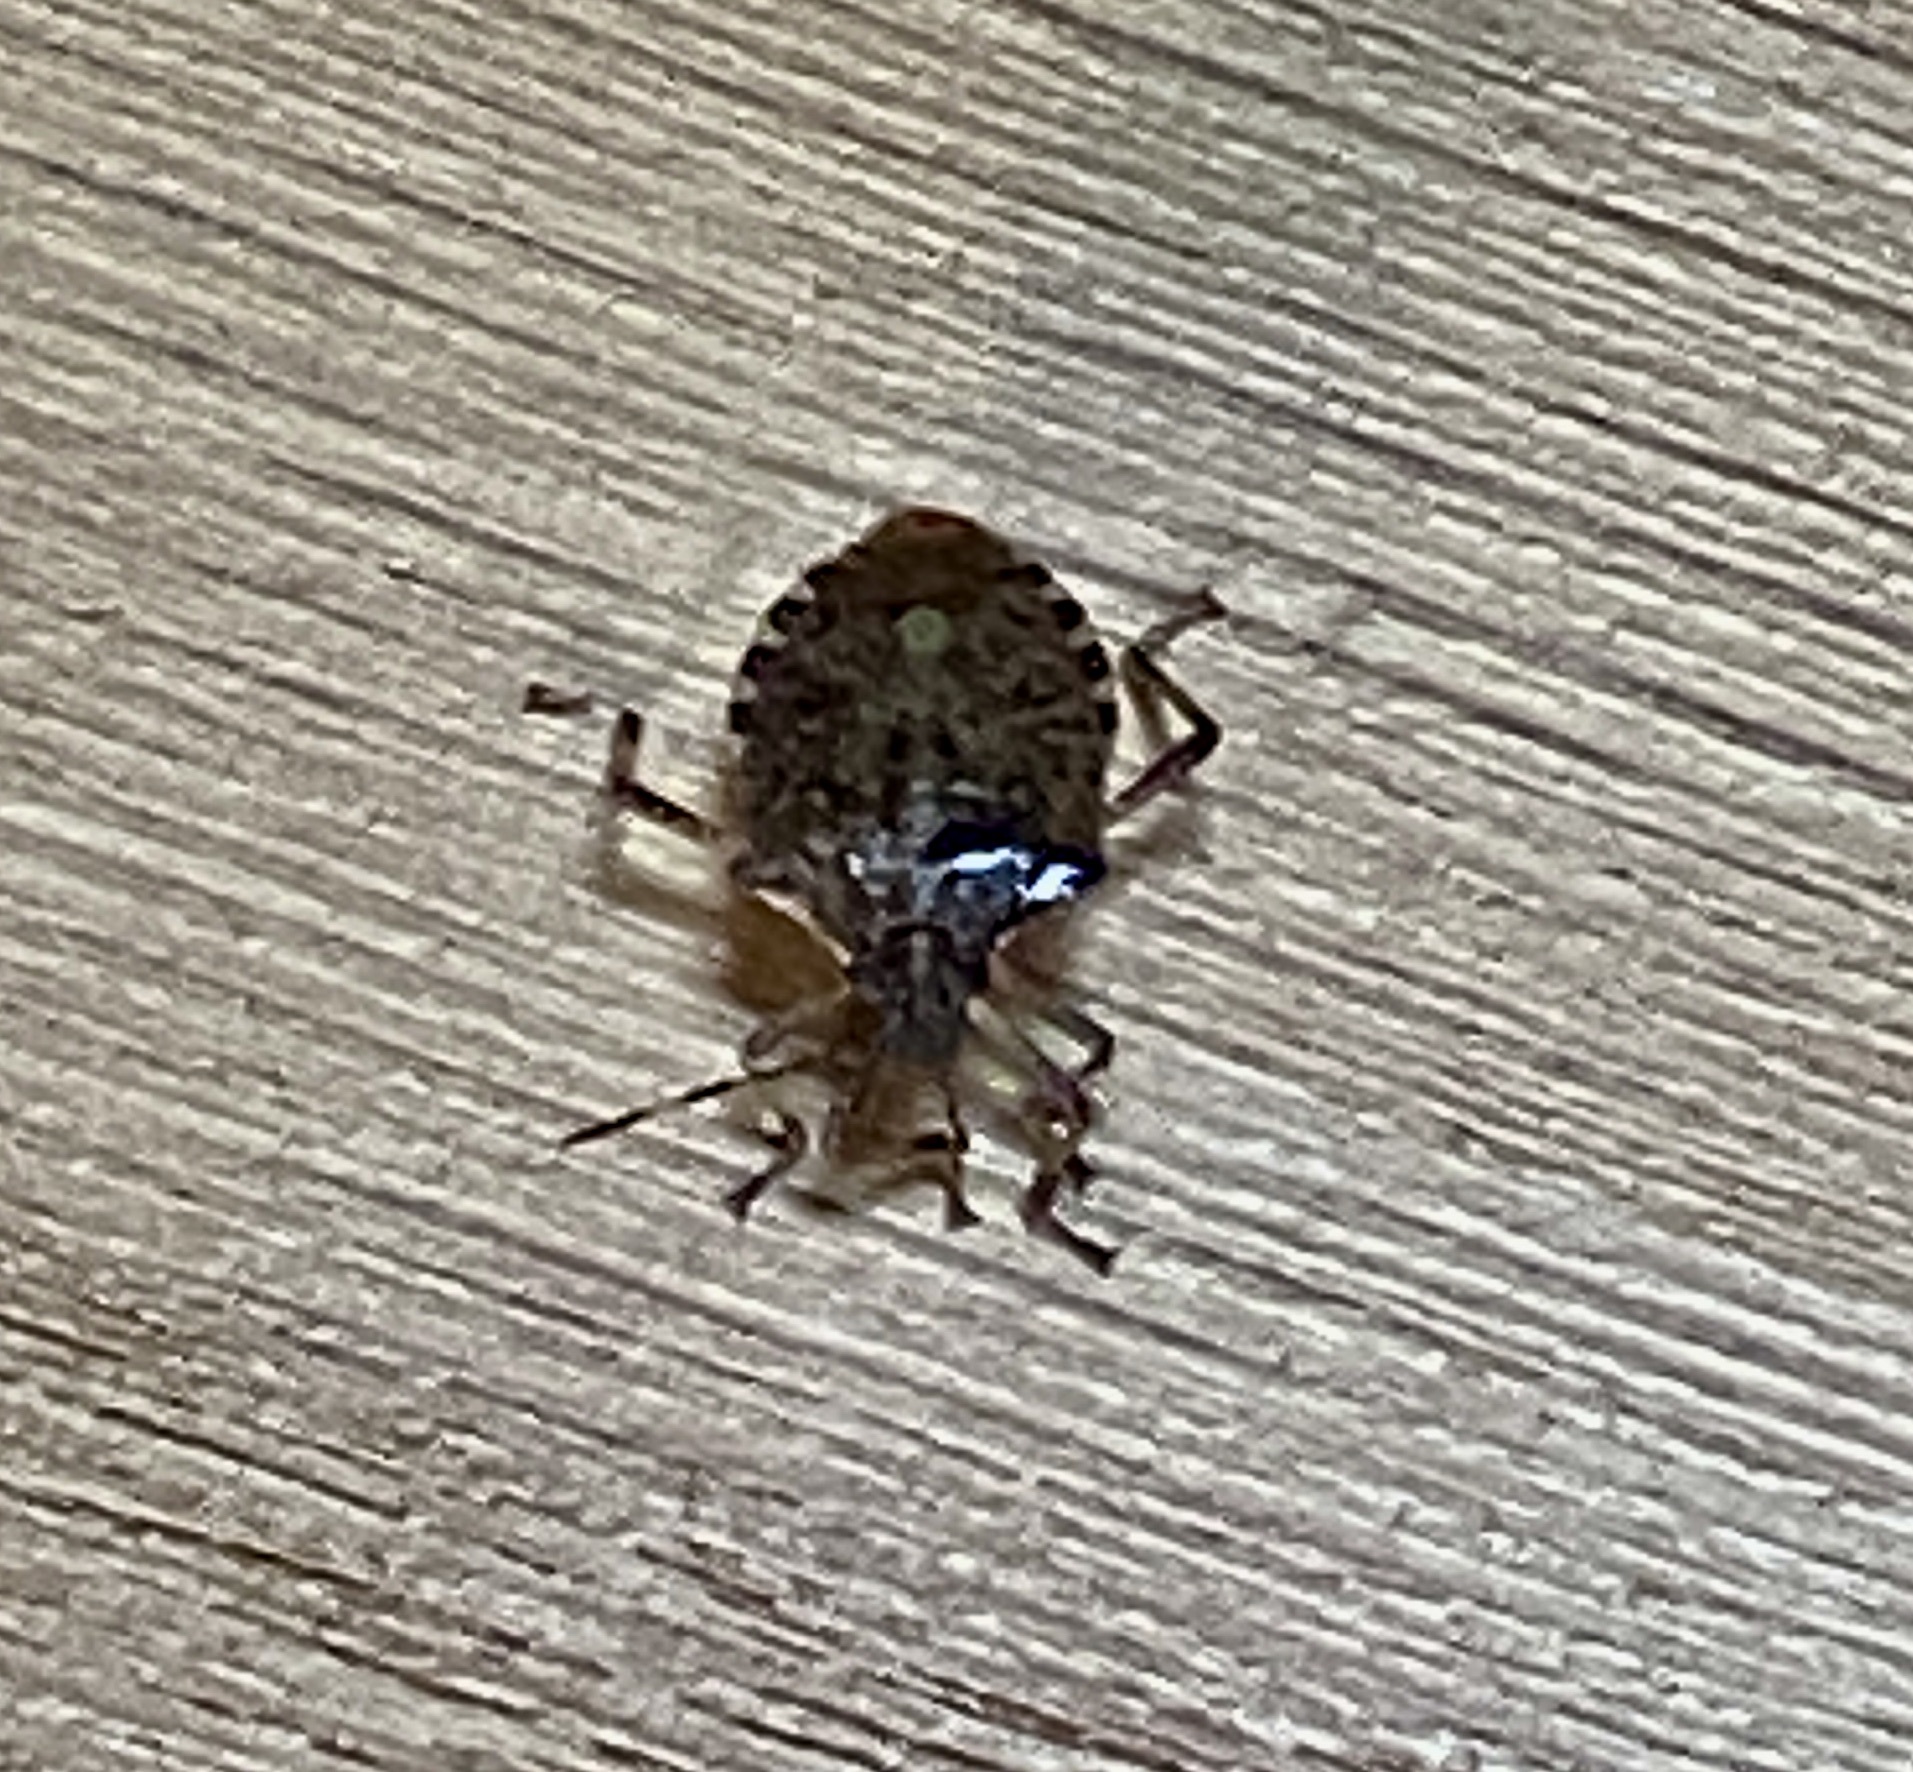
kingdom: Animalia
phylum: Arthropoda
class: Insecta
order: Hemiptera
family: Pentatomidae
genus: Halyomorpha
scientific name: Halyomorpha halys
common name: Brown marmorated stink bug
